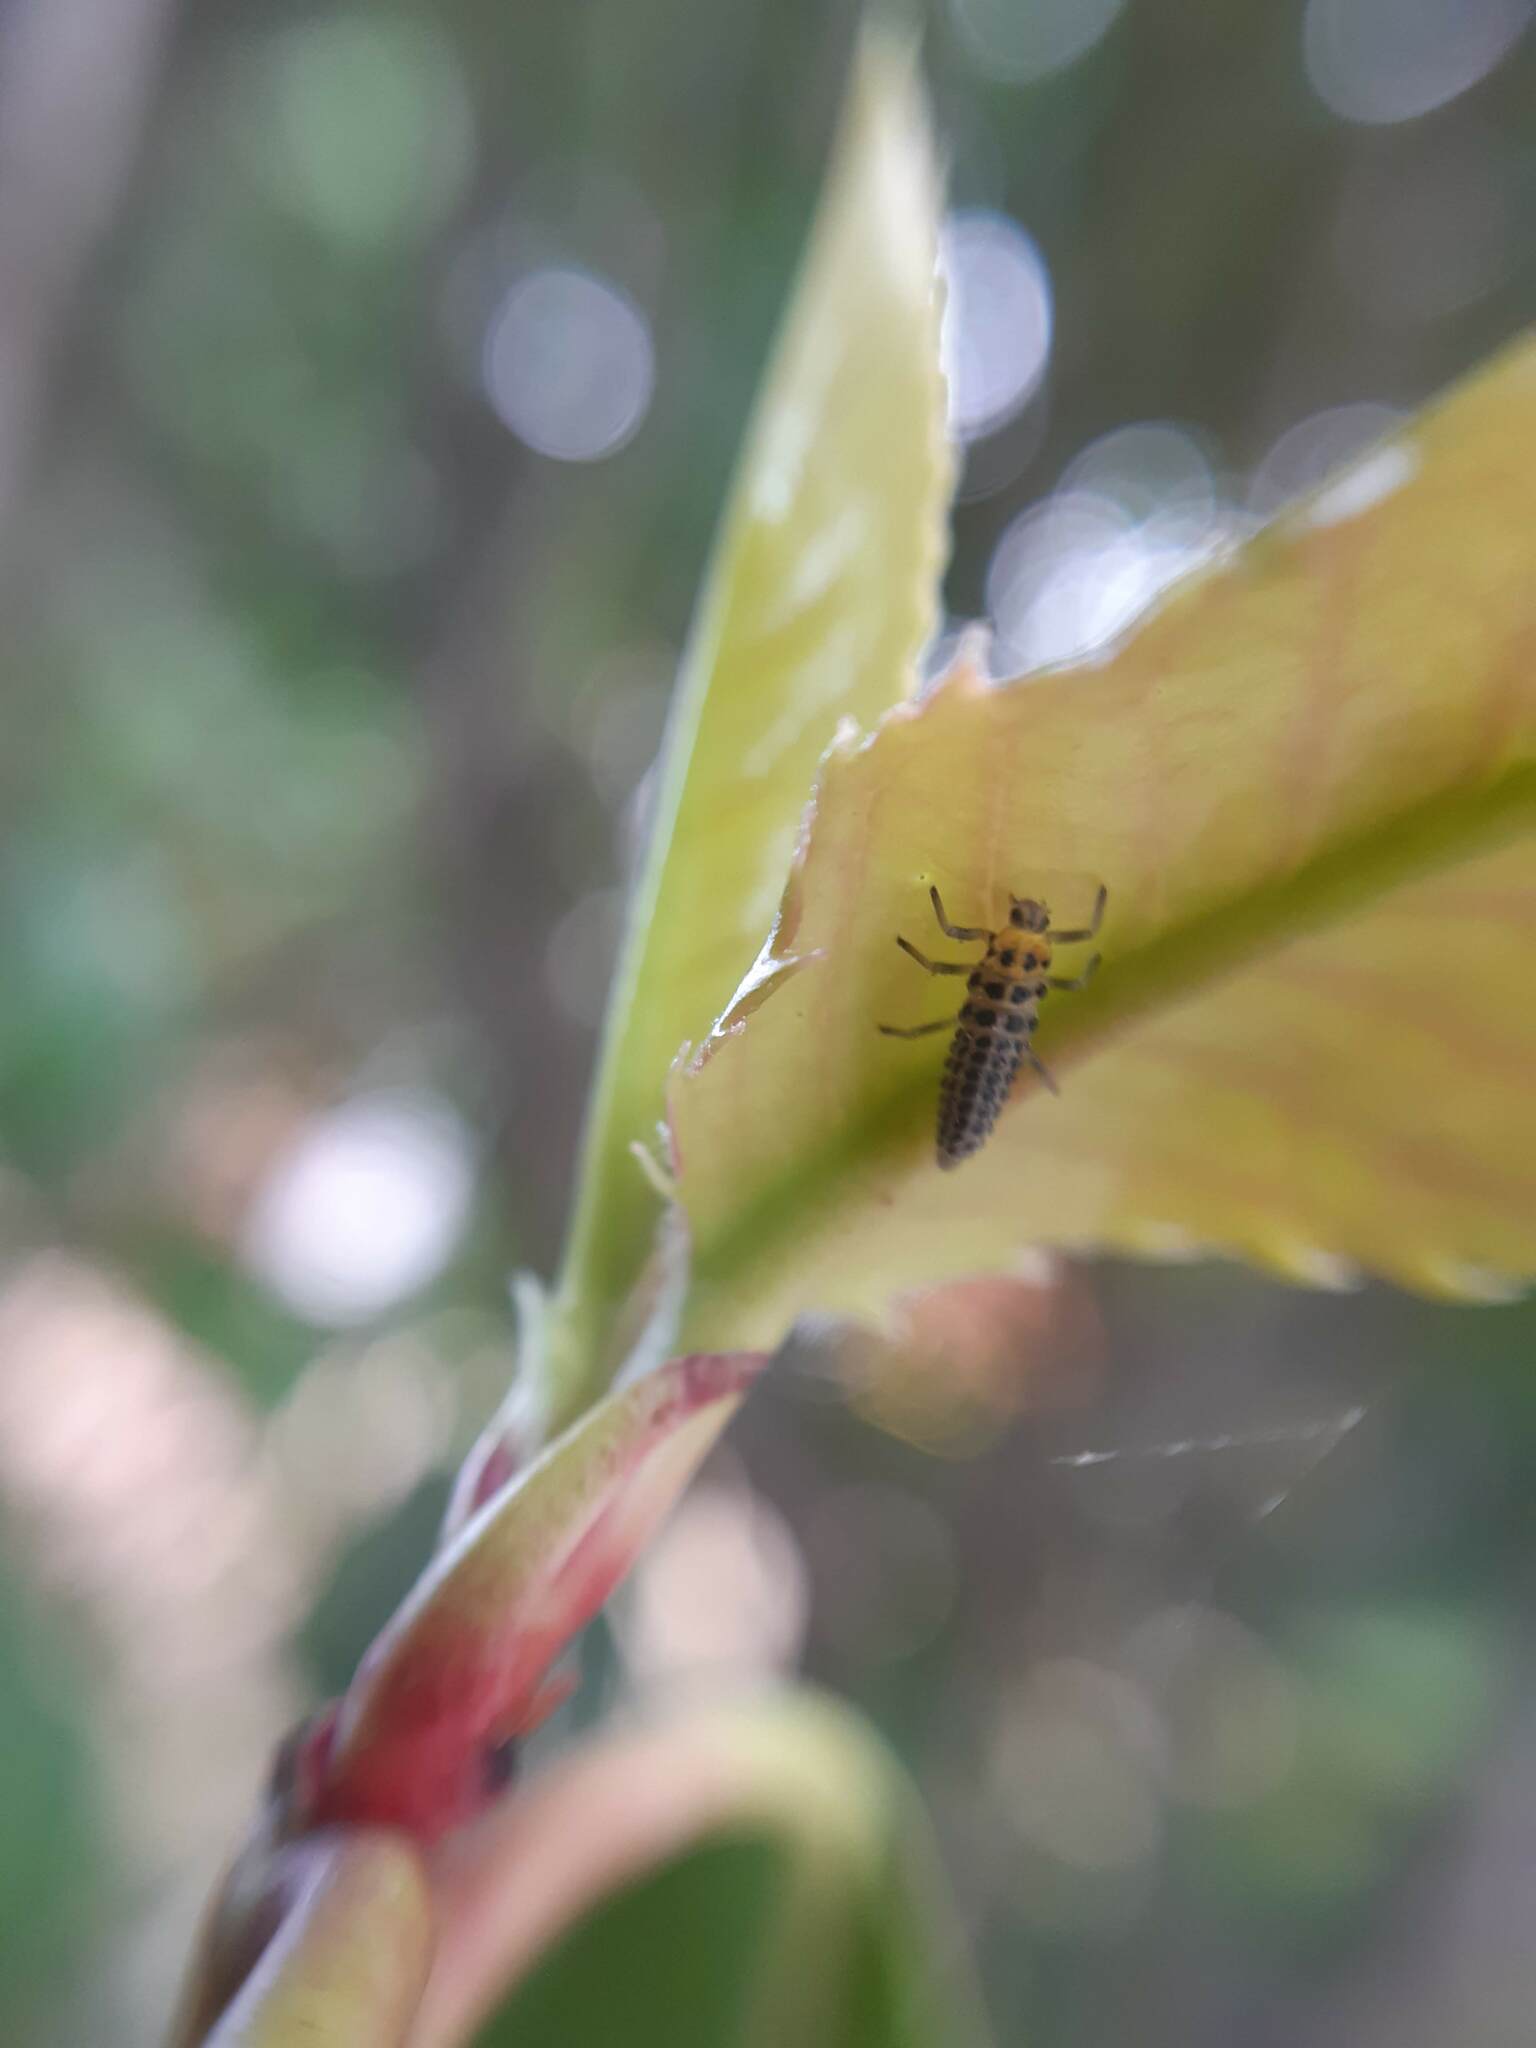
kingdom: Animalia
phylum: Arthropoda
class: Insecta
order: Coleoptera
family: Coccinellidae
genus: Illeis
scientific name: Illeis galbula
